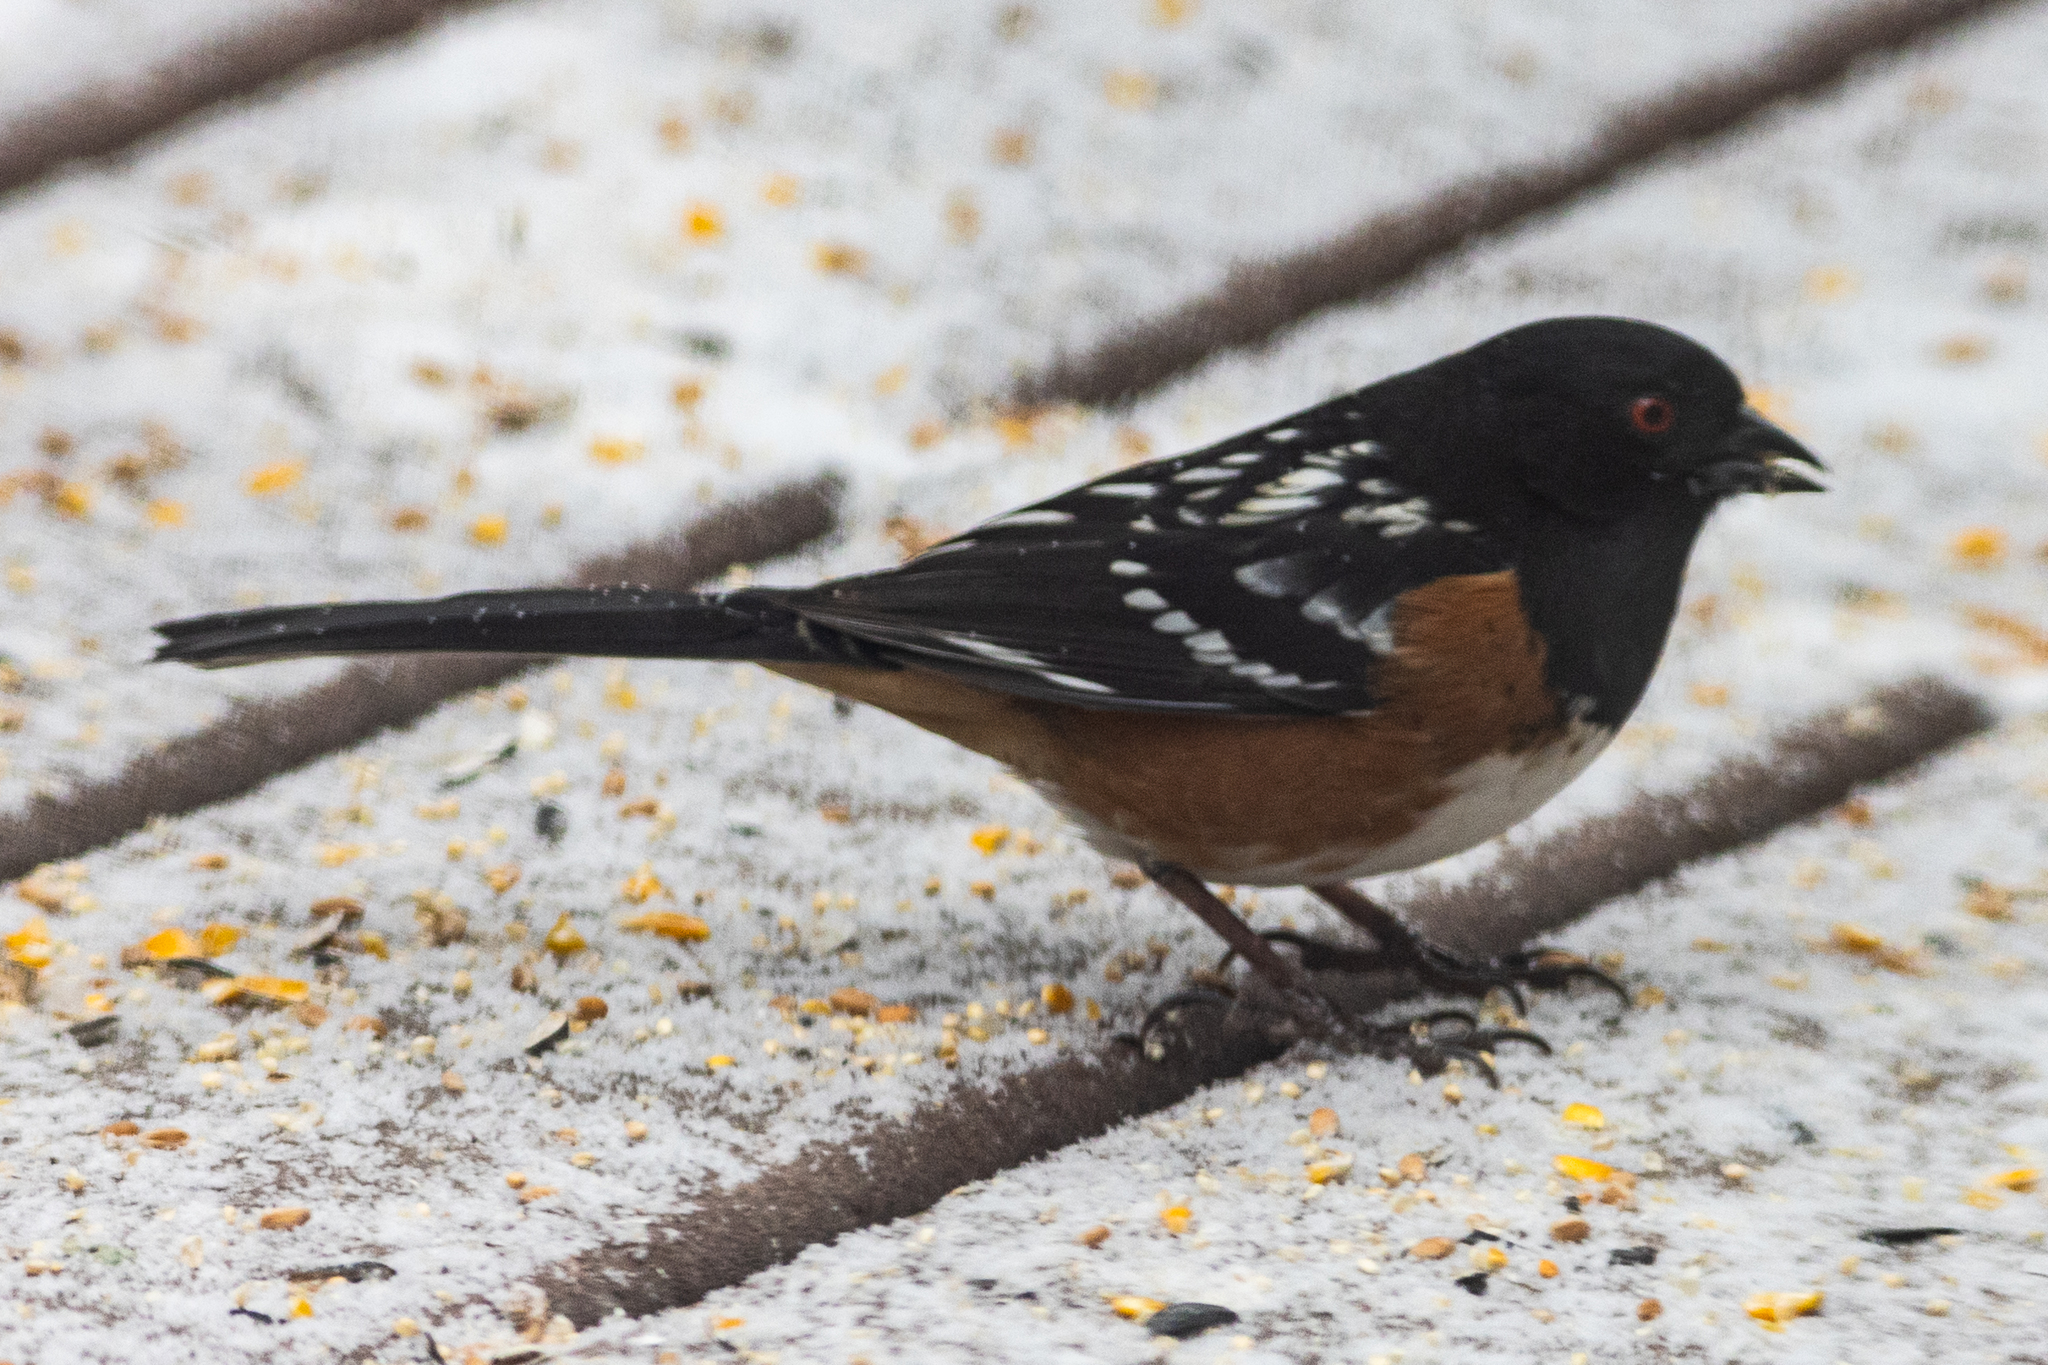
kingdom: Animalia
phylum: Chordata
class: Aves
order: Passeriformes
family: Passerellidae
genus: Pipilo
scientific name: Pipilo maculatus
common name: Spotted towhee
